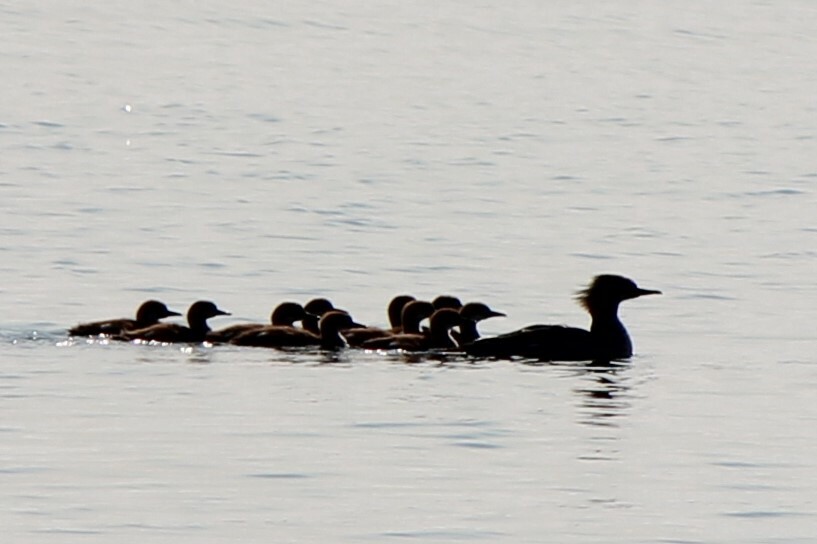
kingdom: Animalia
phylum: Chordata
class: Aves
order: Anseriformes
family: Anatidae
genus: Mergus
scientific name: Mergus merganser
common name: Common merganser
